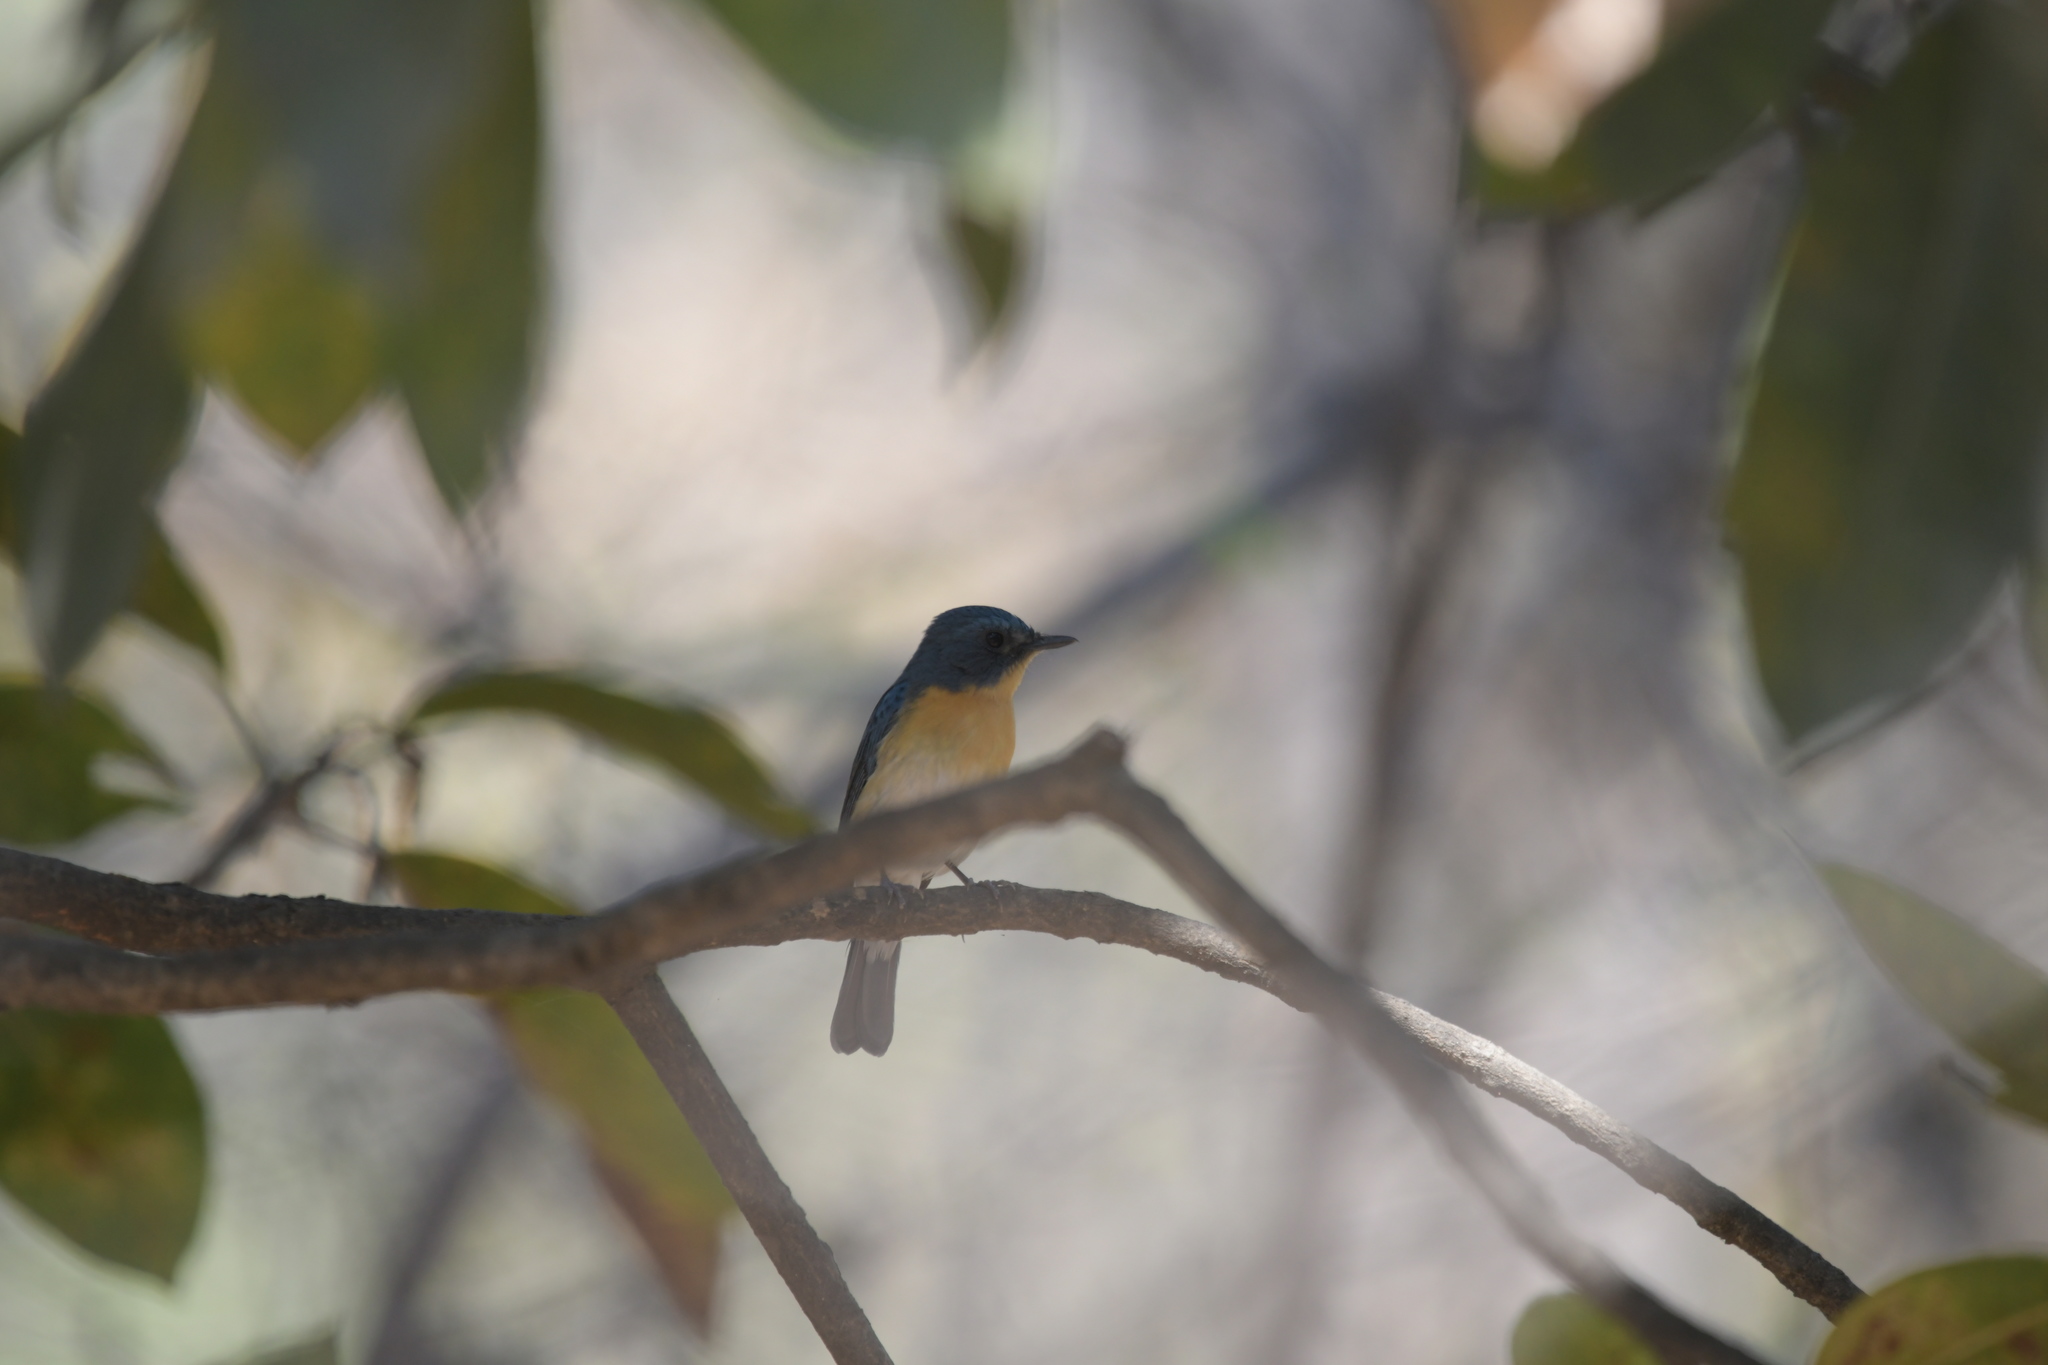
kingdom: Animalia
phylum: Chordata
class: Aves
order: Passeriformes
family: Muscicapidae
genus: Cyornis
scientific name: Cyornis tickelliae
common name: Tickell's blue flycatcher
